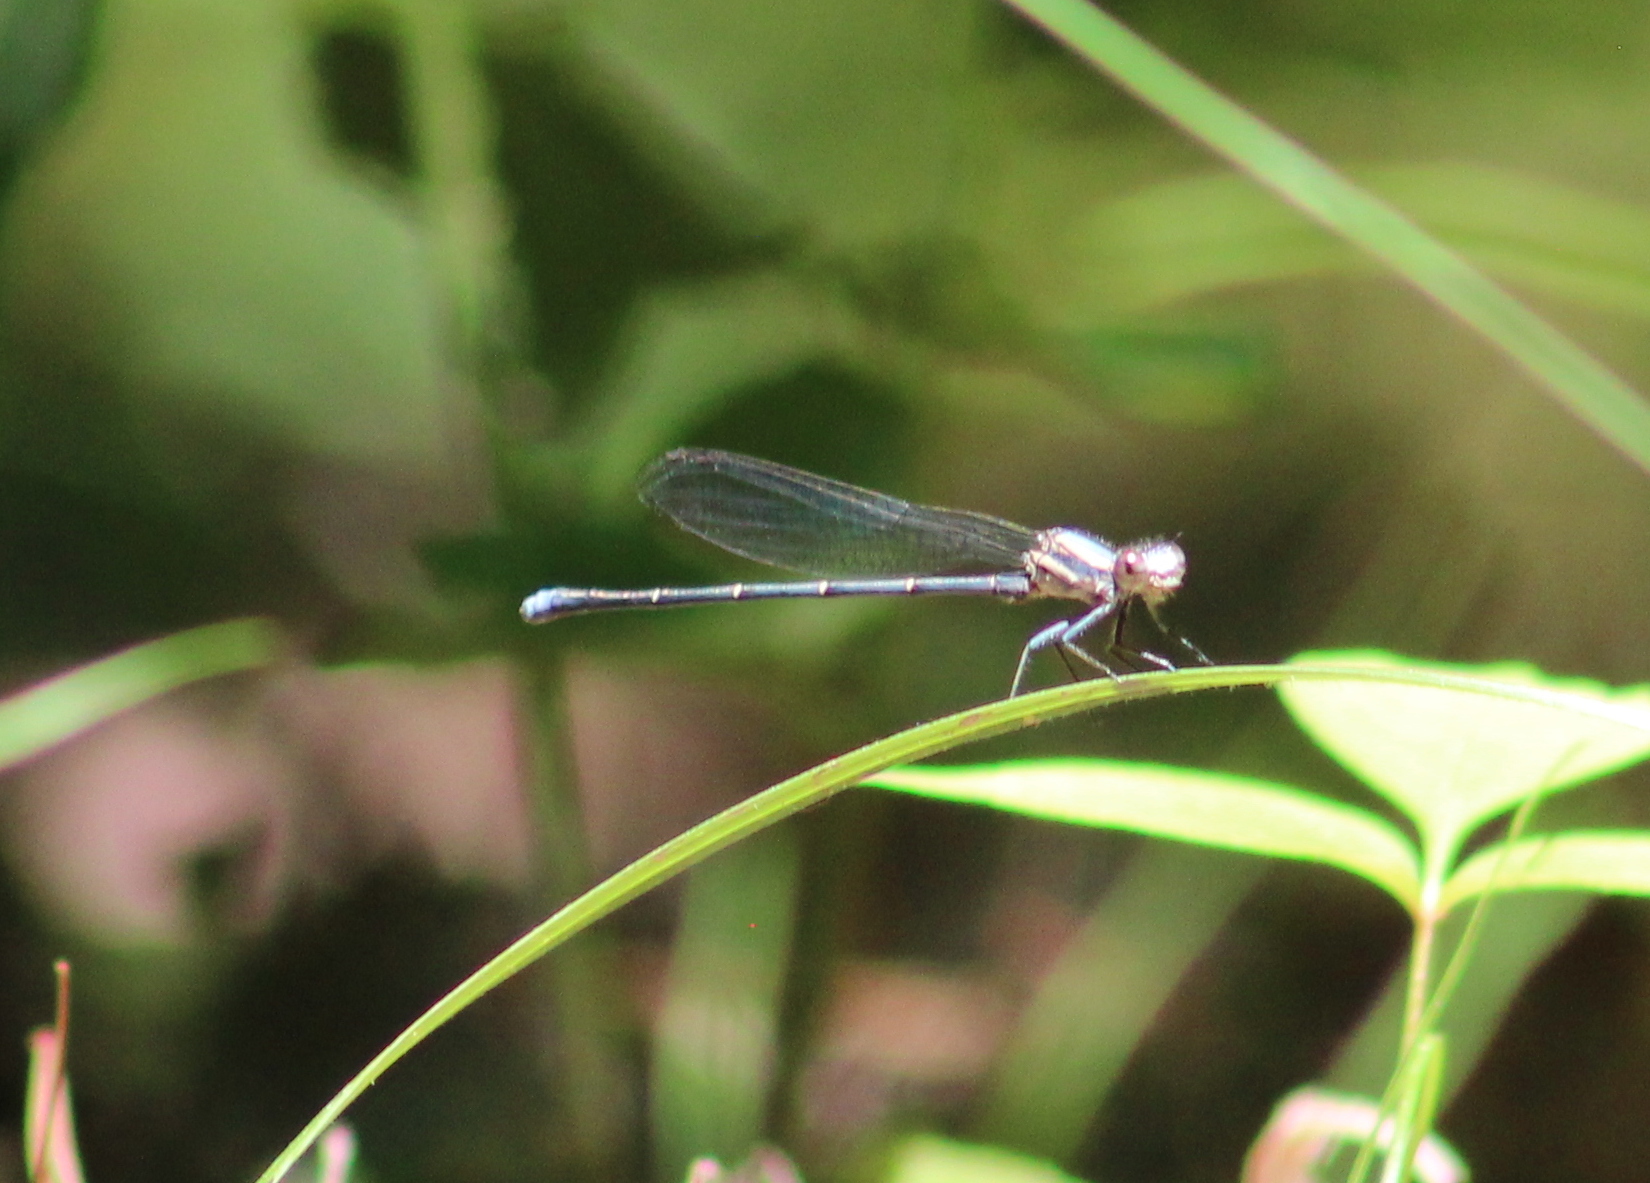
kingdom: Animalia
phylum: Arthropoda
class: Insecta
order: Odonata
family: Coenagrionidae
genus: Argia
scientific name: Argia moesta
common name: Powdered dancer
